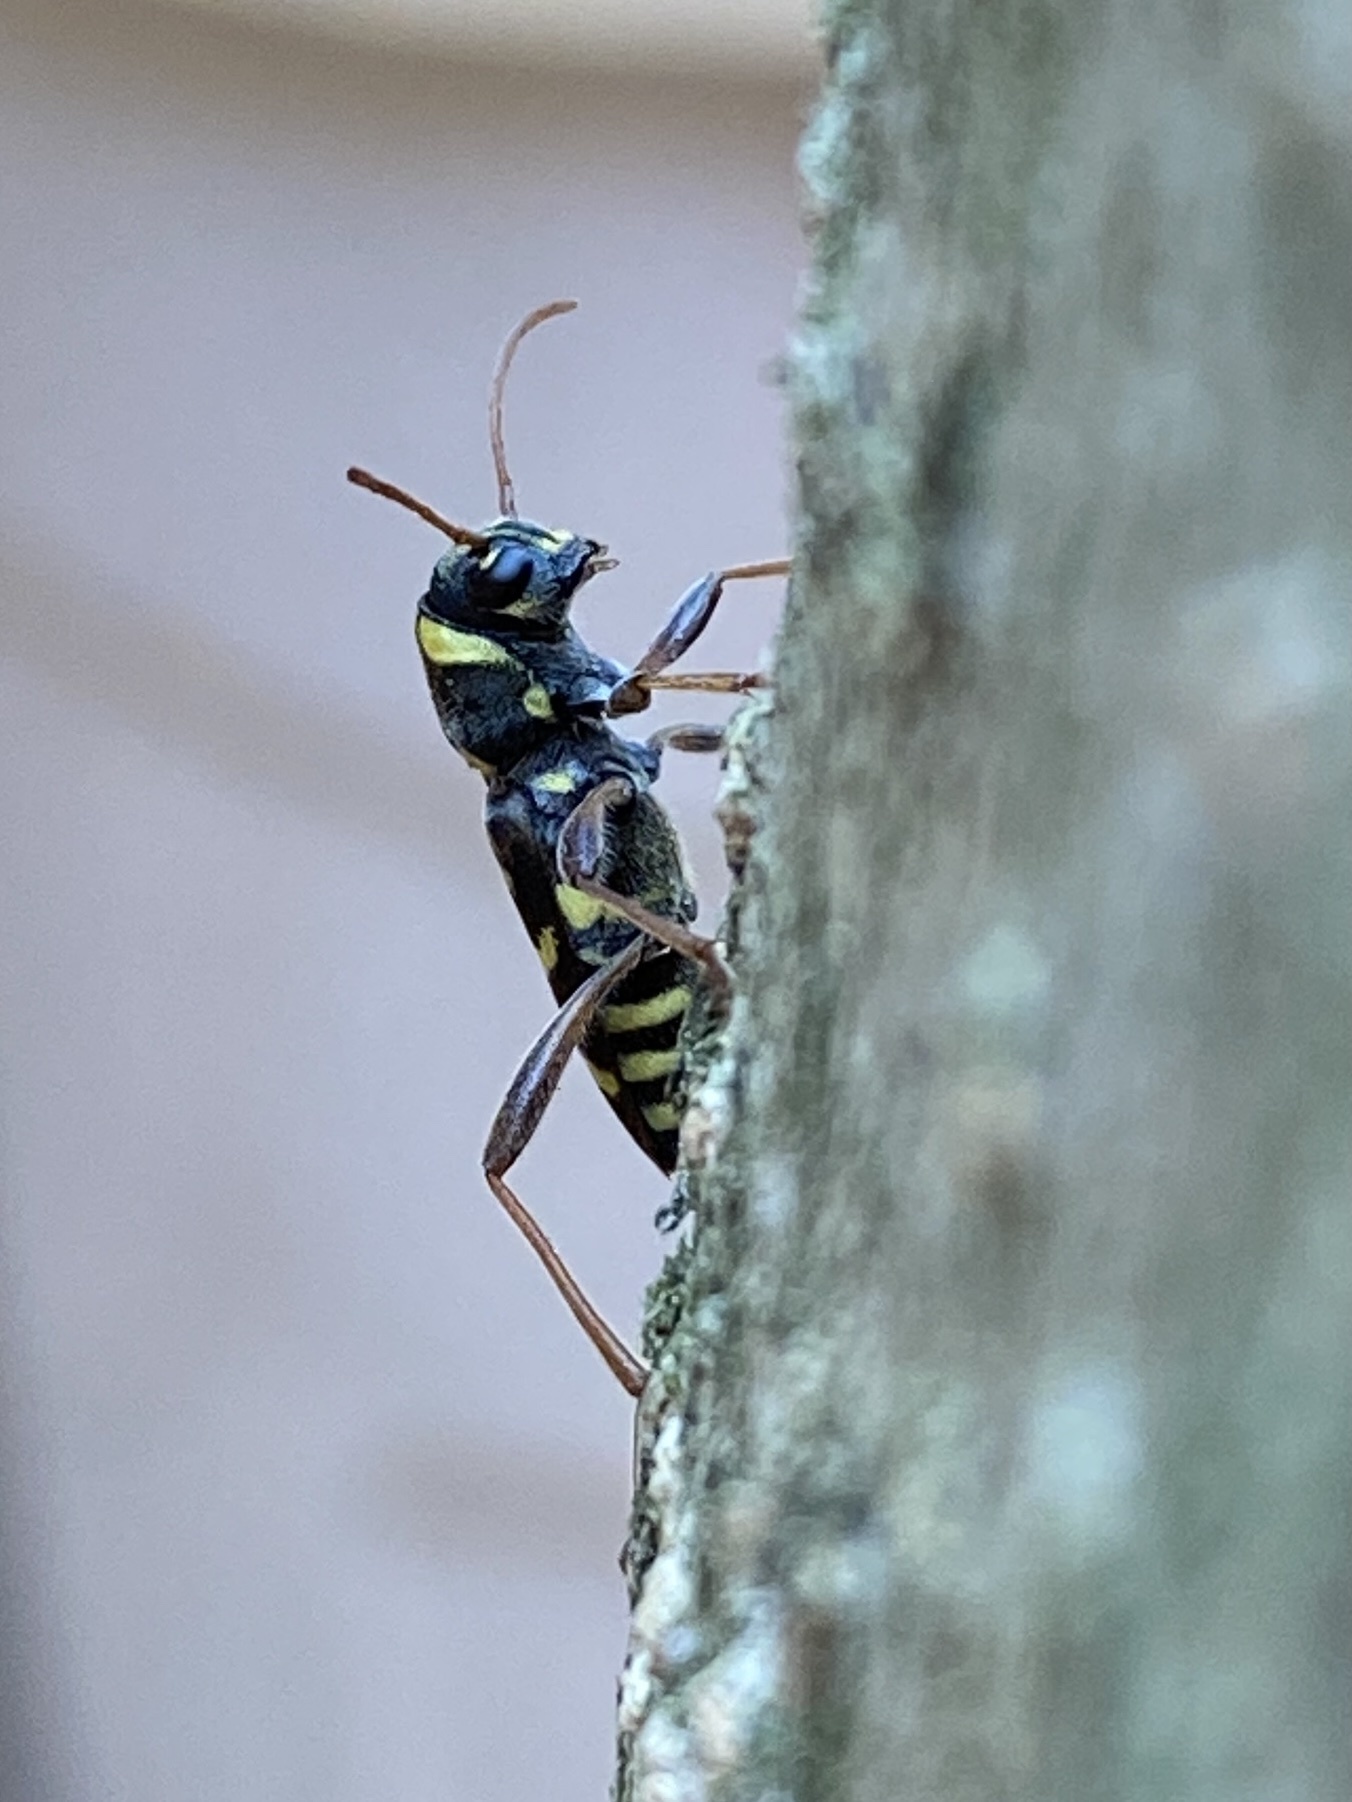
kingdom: Animalia
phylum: Arthropoda
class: Insecta
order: Coleoptera
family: Cerambycidae
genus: Xylotrechus
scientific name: Xylotrechus arvicola
